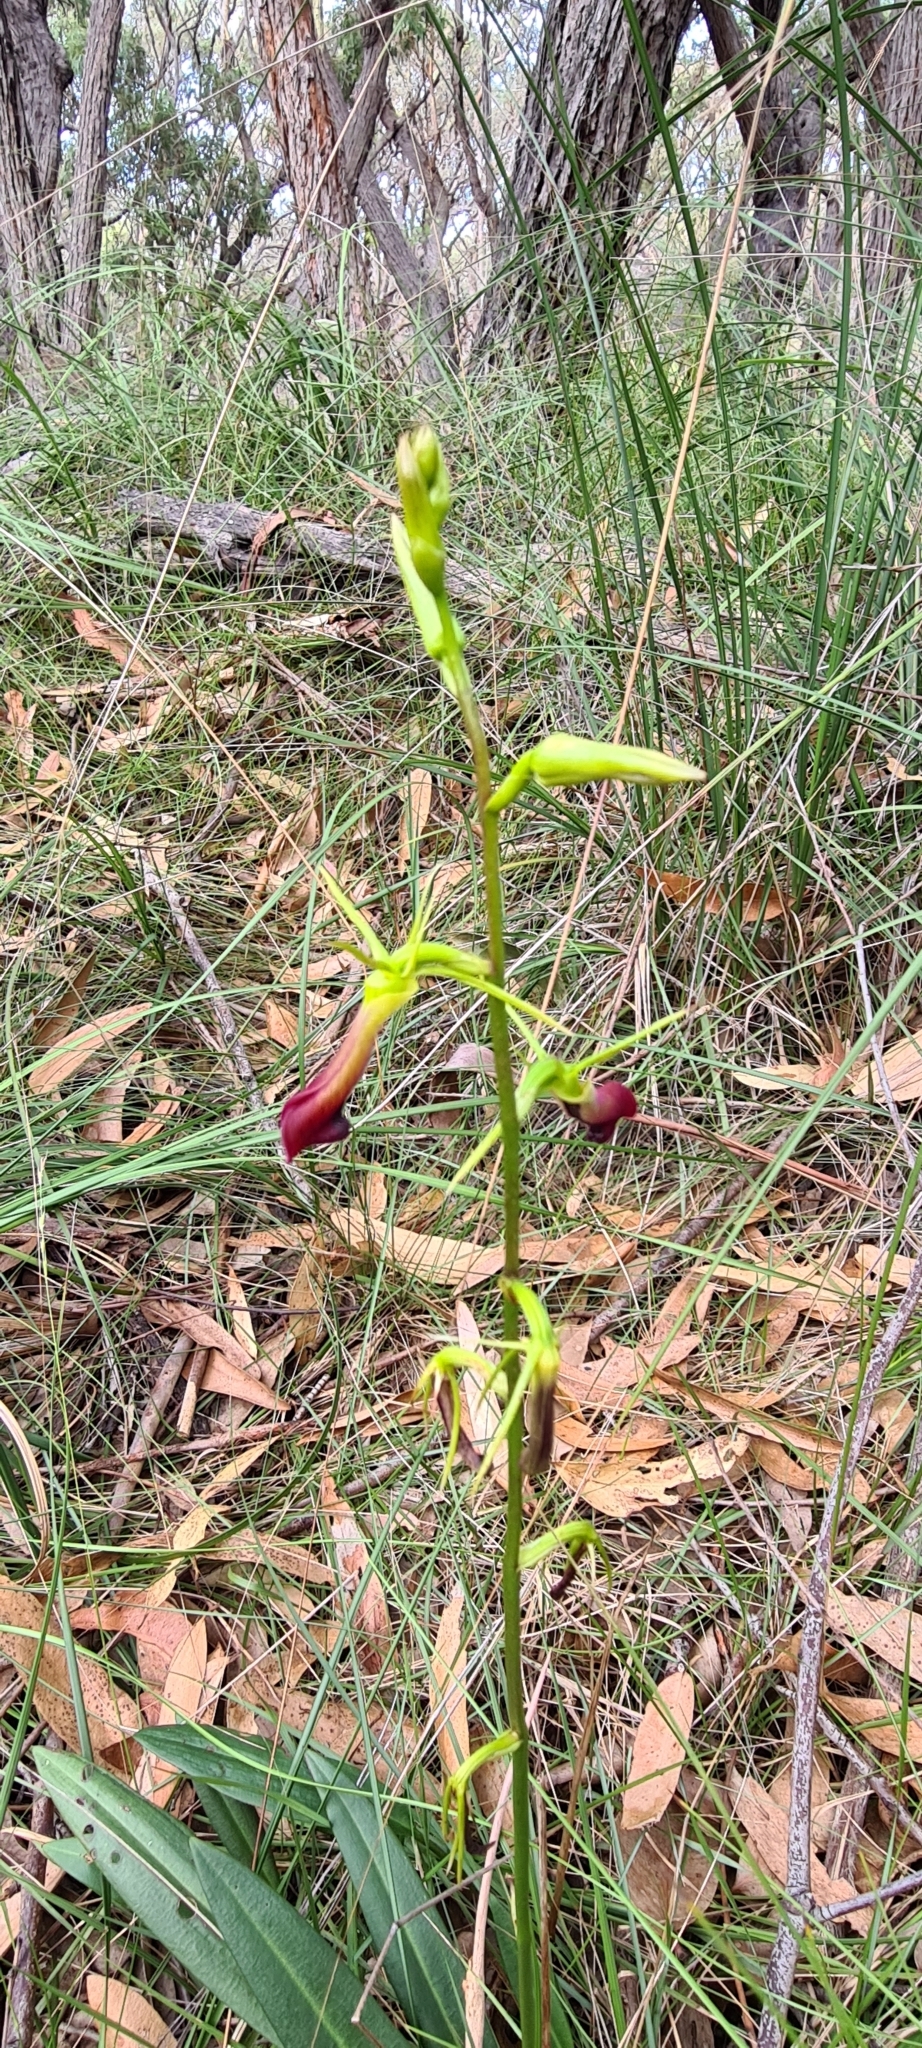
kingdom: Plantae
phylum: Tracheophyta
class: Liliopsida
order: Asparagales
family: Orchidaceae
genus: Cryptostylis
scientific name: Cryptostylis subulata
